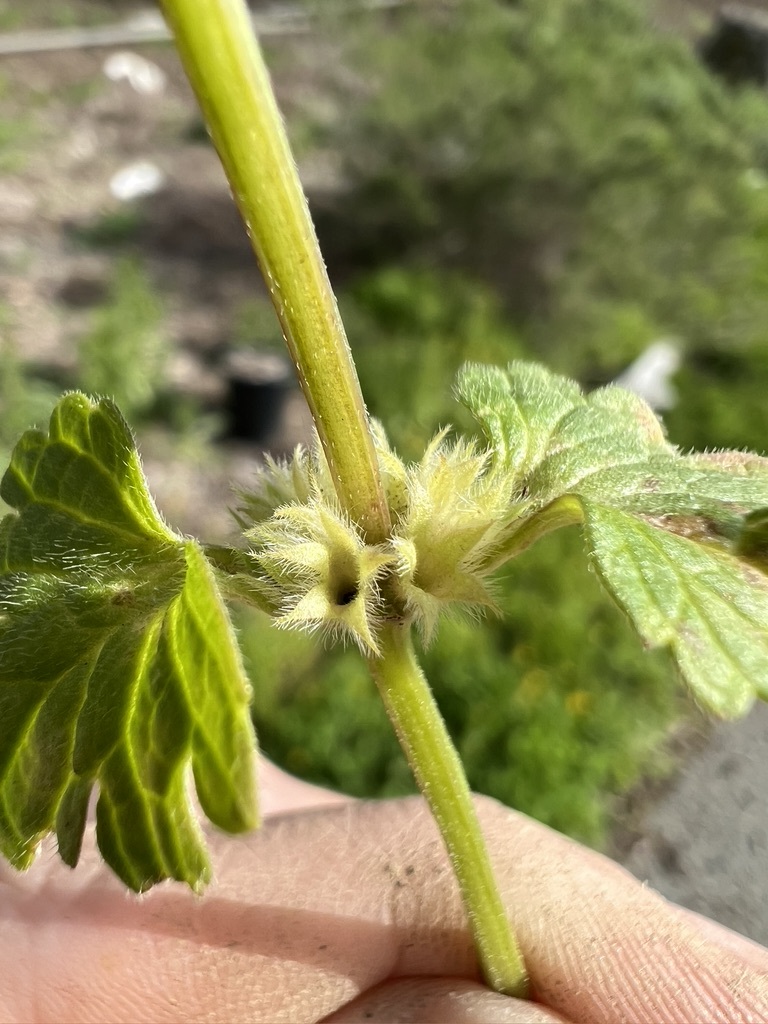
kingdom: Plantae
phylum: Tracheophyta
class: Magnoliopsida
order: Lamiales
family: Lamiaceae
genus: Lamium
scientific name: Lamium amplexicaule
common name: Henbit dead-nettle
